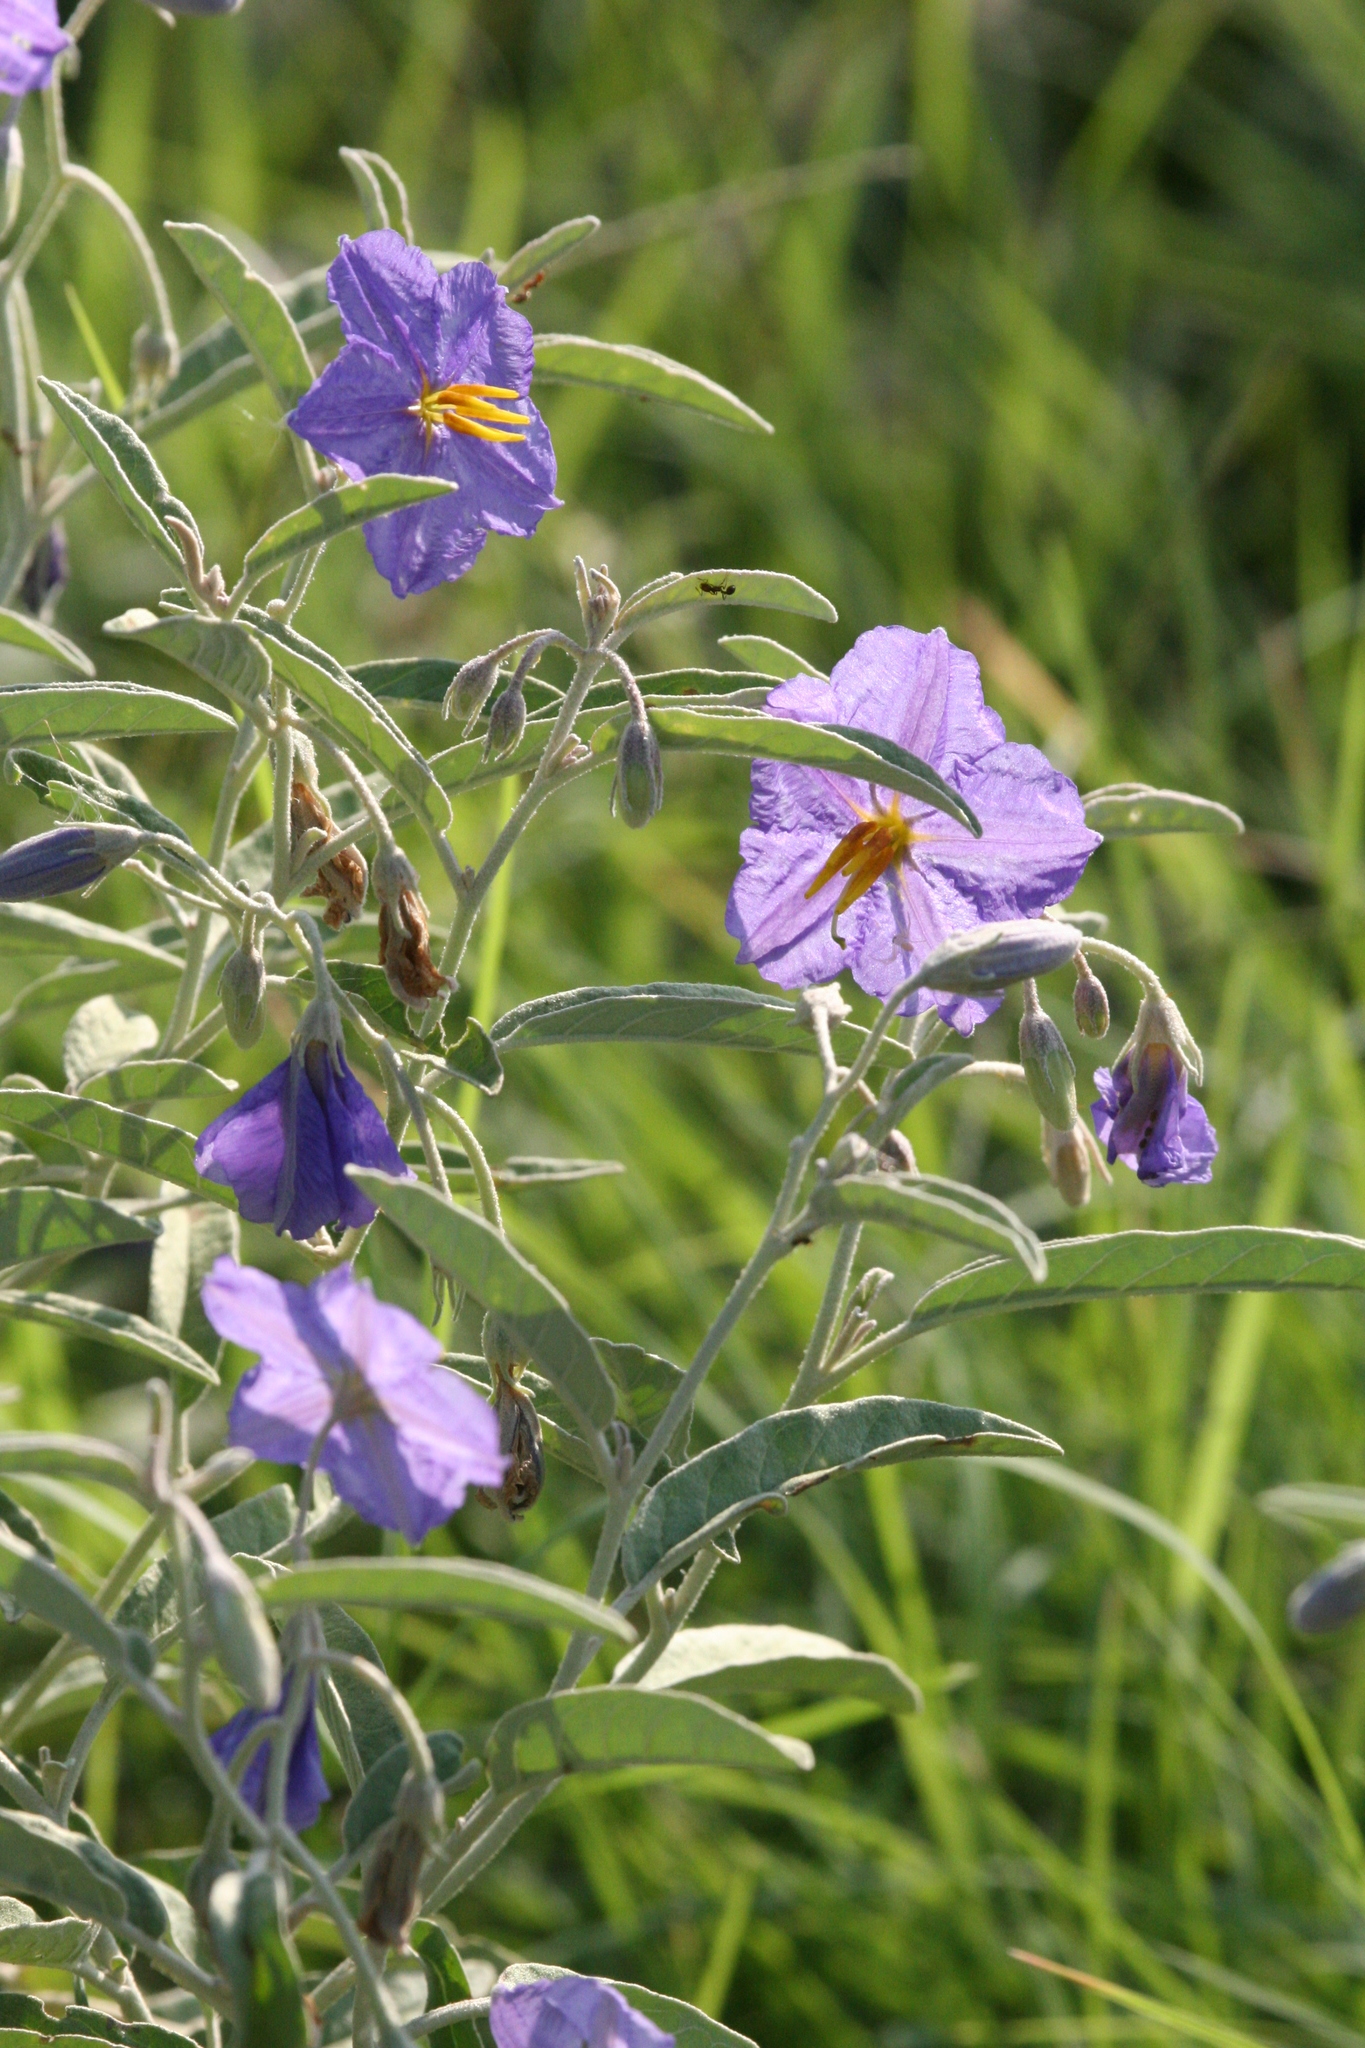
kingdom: Plantae
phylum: Tracheophyta
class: Magnoliopsida
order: Solanales
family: Solanaceae
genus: Solanum
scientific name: Solanum elaeagnifolium
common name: Silverleaf nightshade
